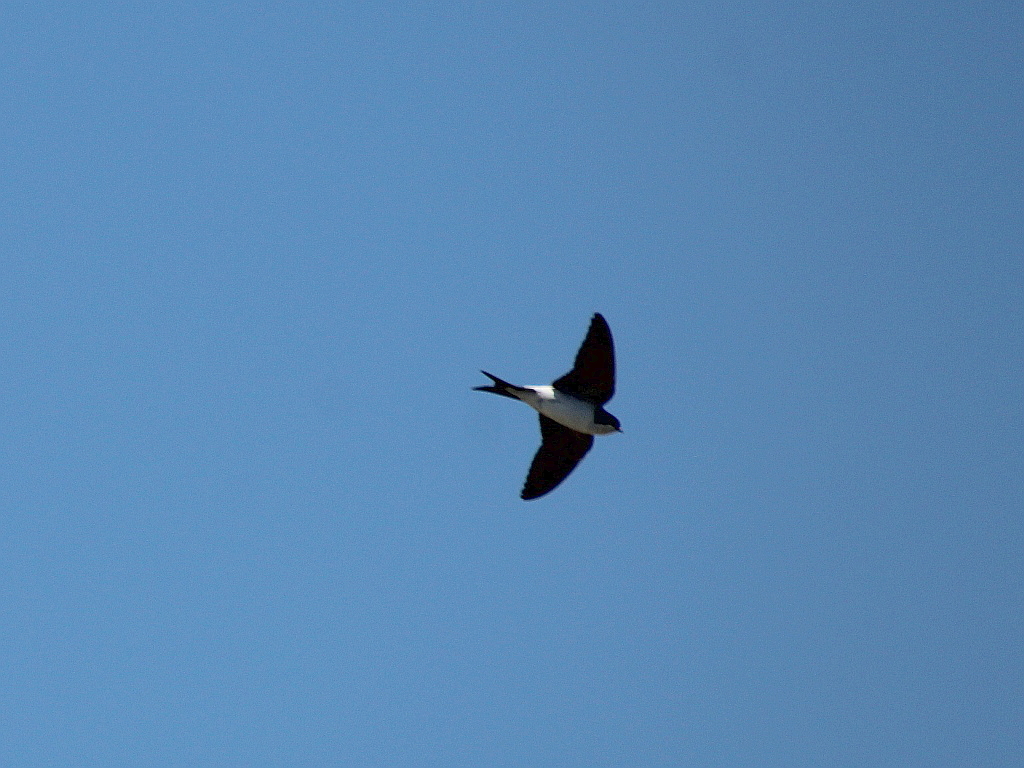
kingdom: Animalia
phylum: Chordata
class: Aves
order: Passeriformes
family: Hirundinidae
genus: Delichon
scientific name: Delichon urbicum
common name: Common house martin
